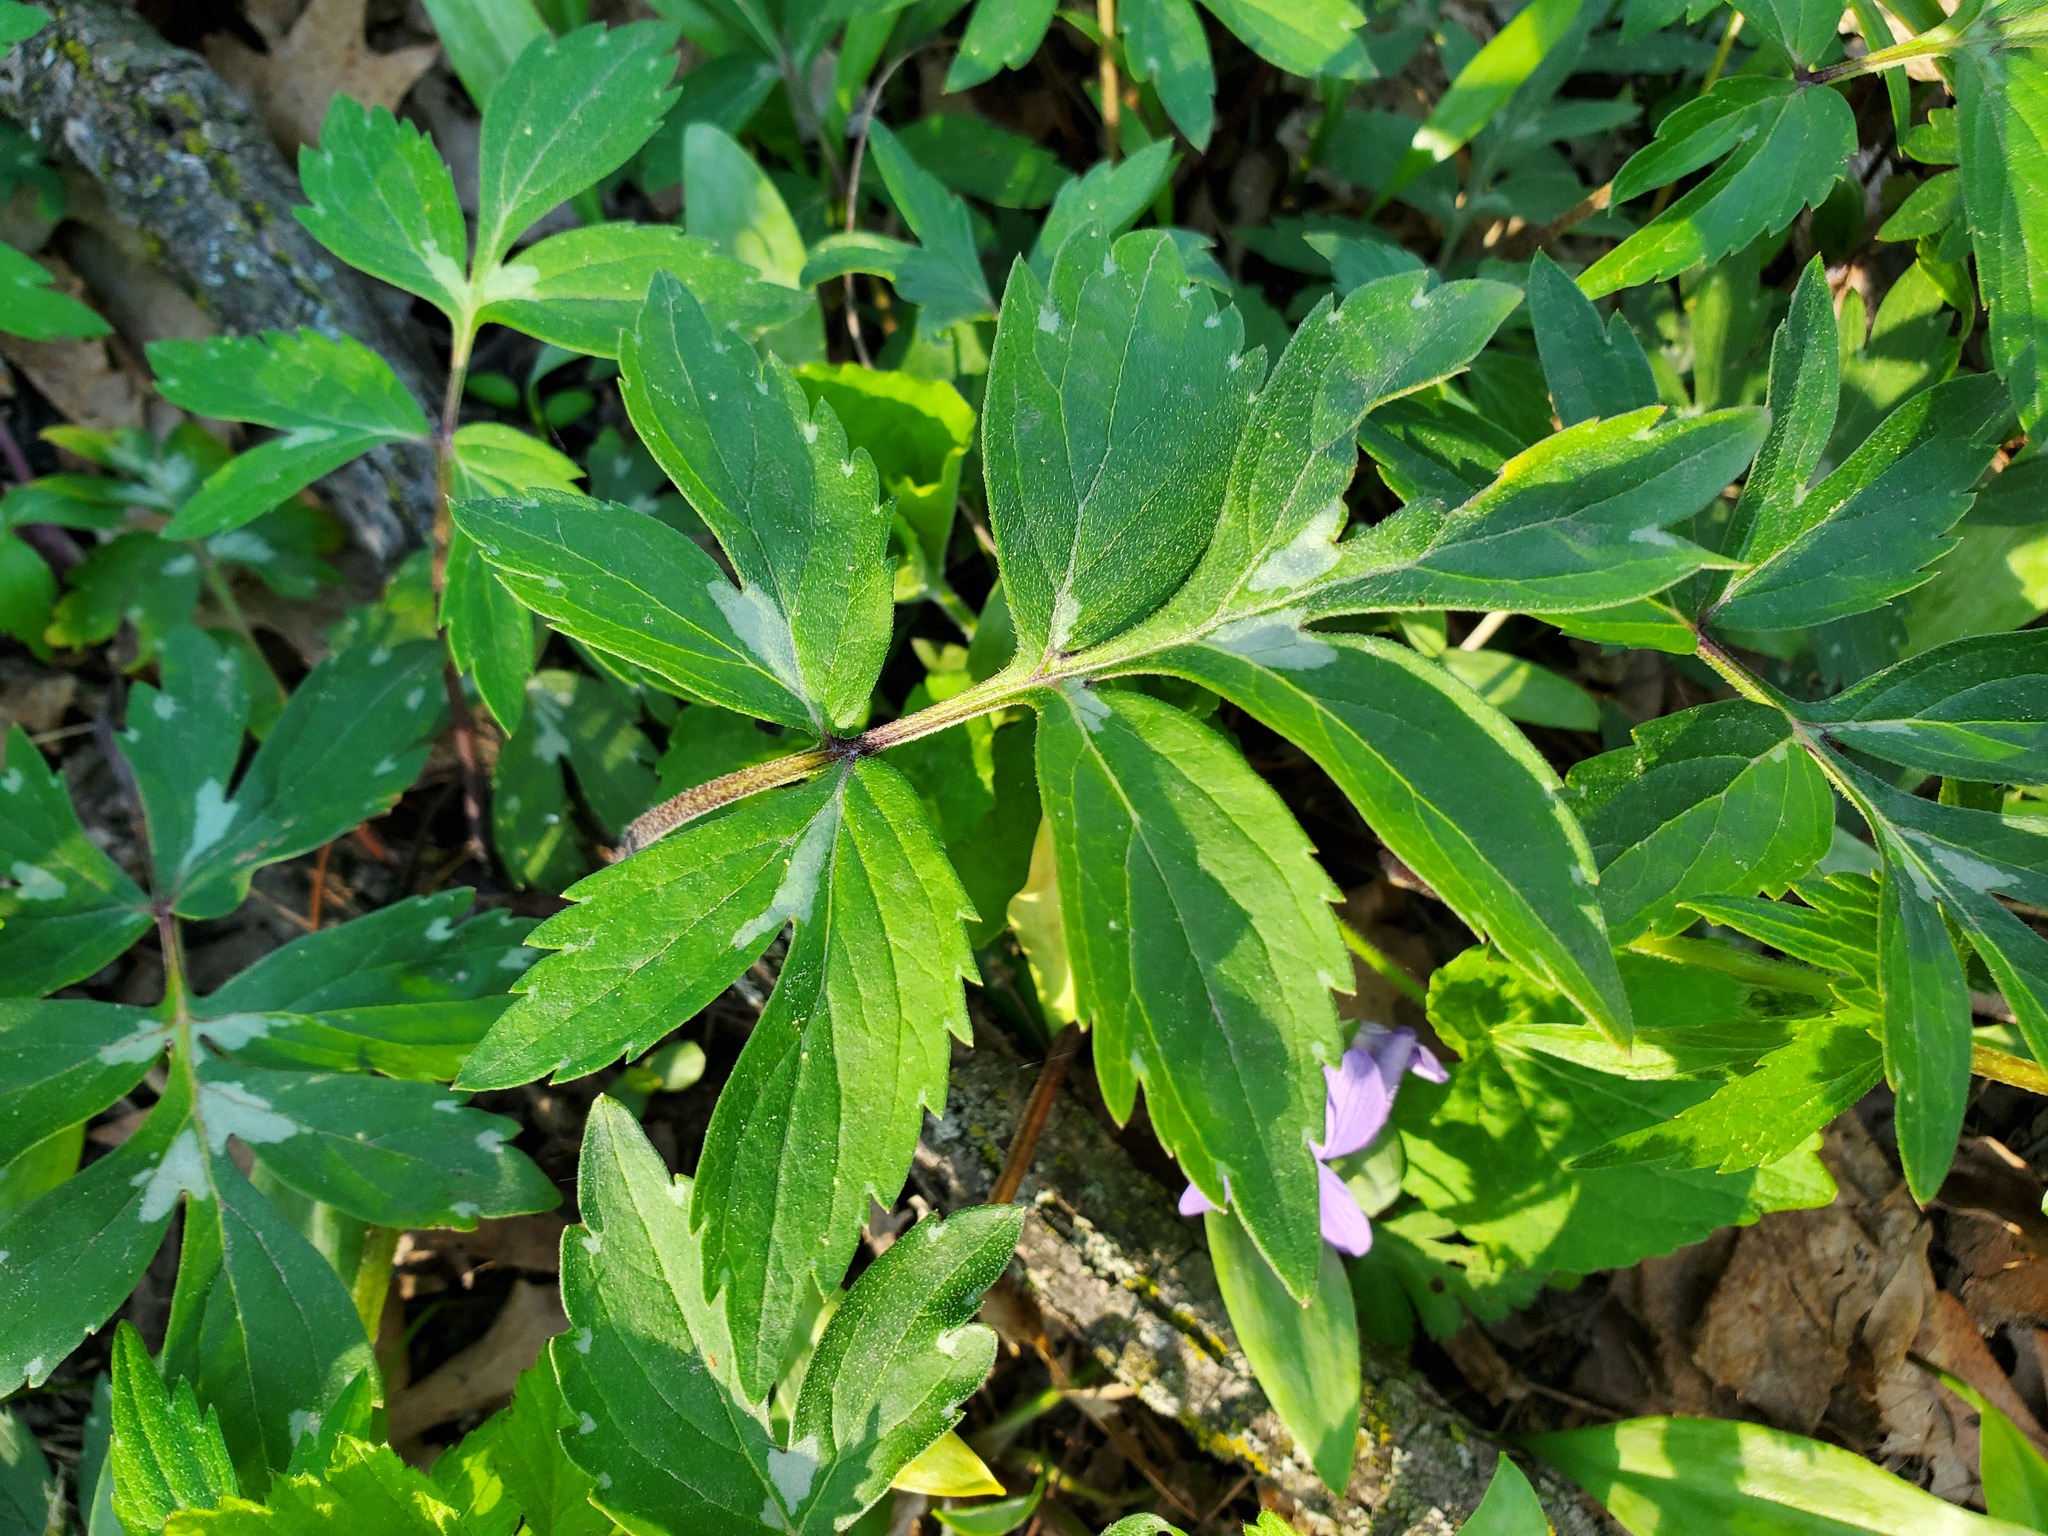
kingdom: Plantae
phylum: Tracheophyta
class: Magnoliopsida
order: Boraginales
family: Hydrophyllaceae
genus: Hydrophyllum
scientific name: Hydrophyllum virginianum
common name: Virginia waterleaf
